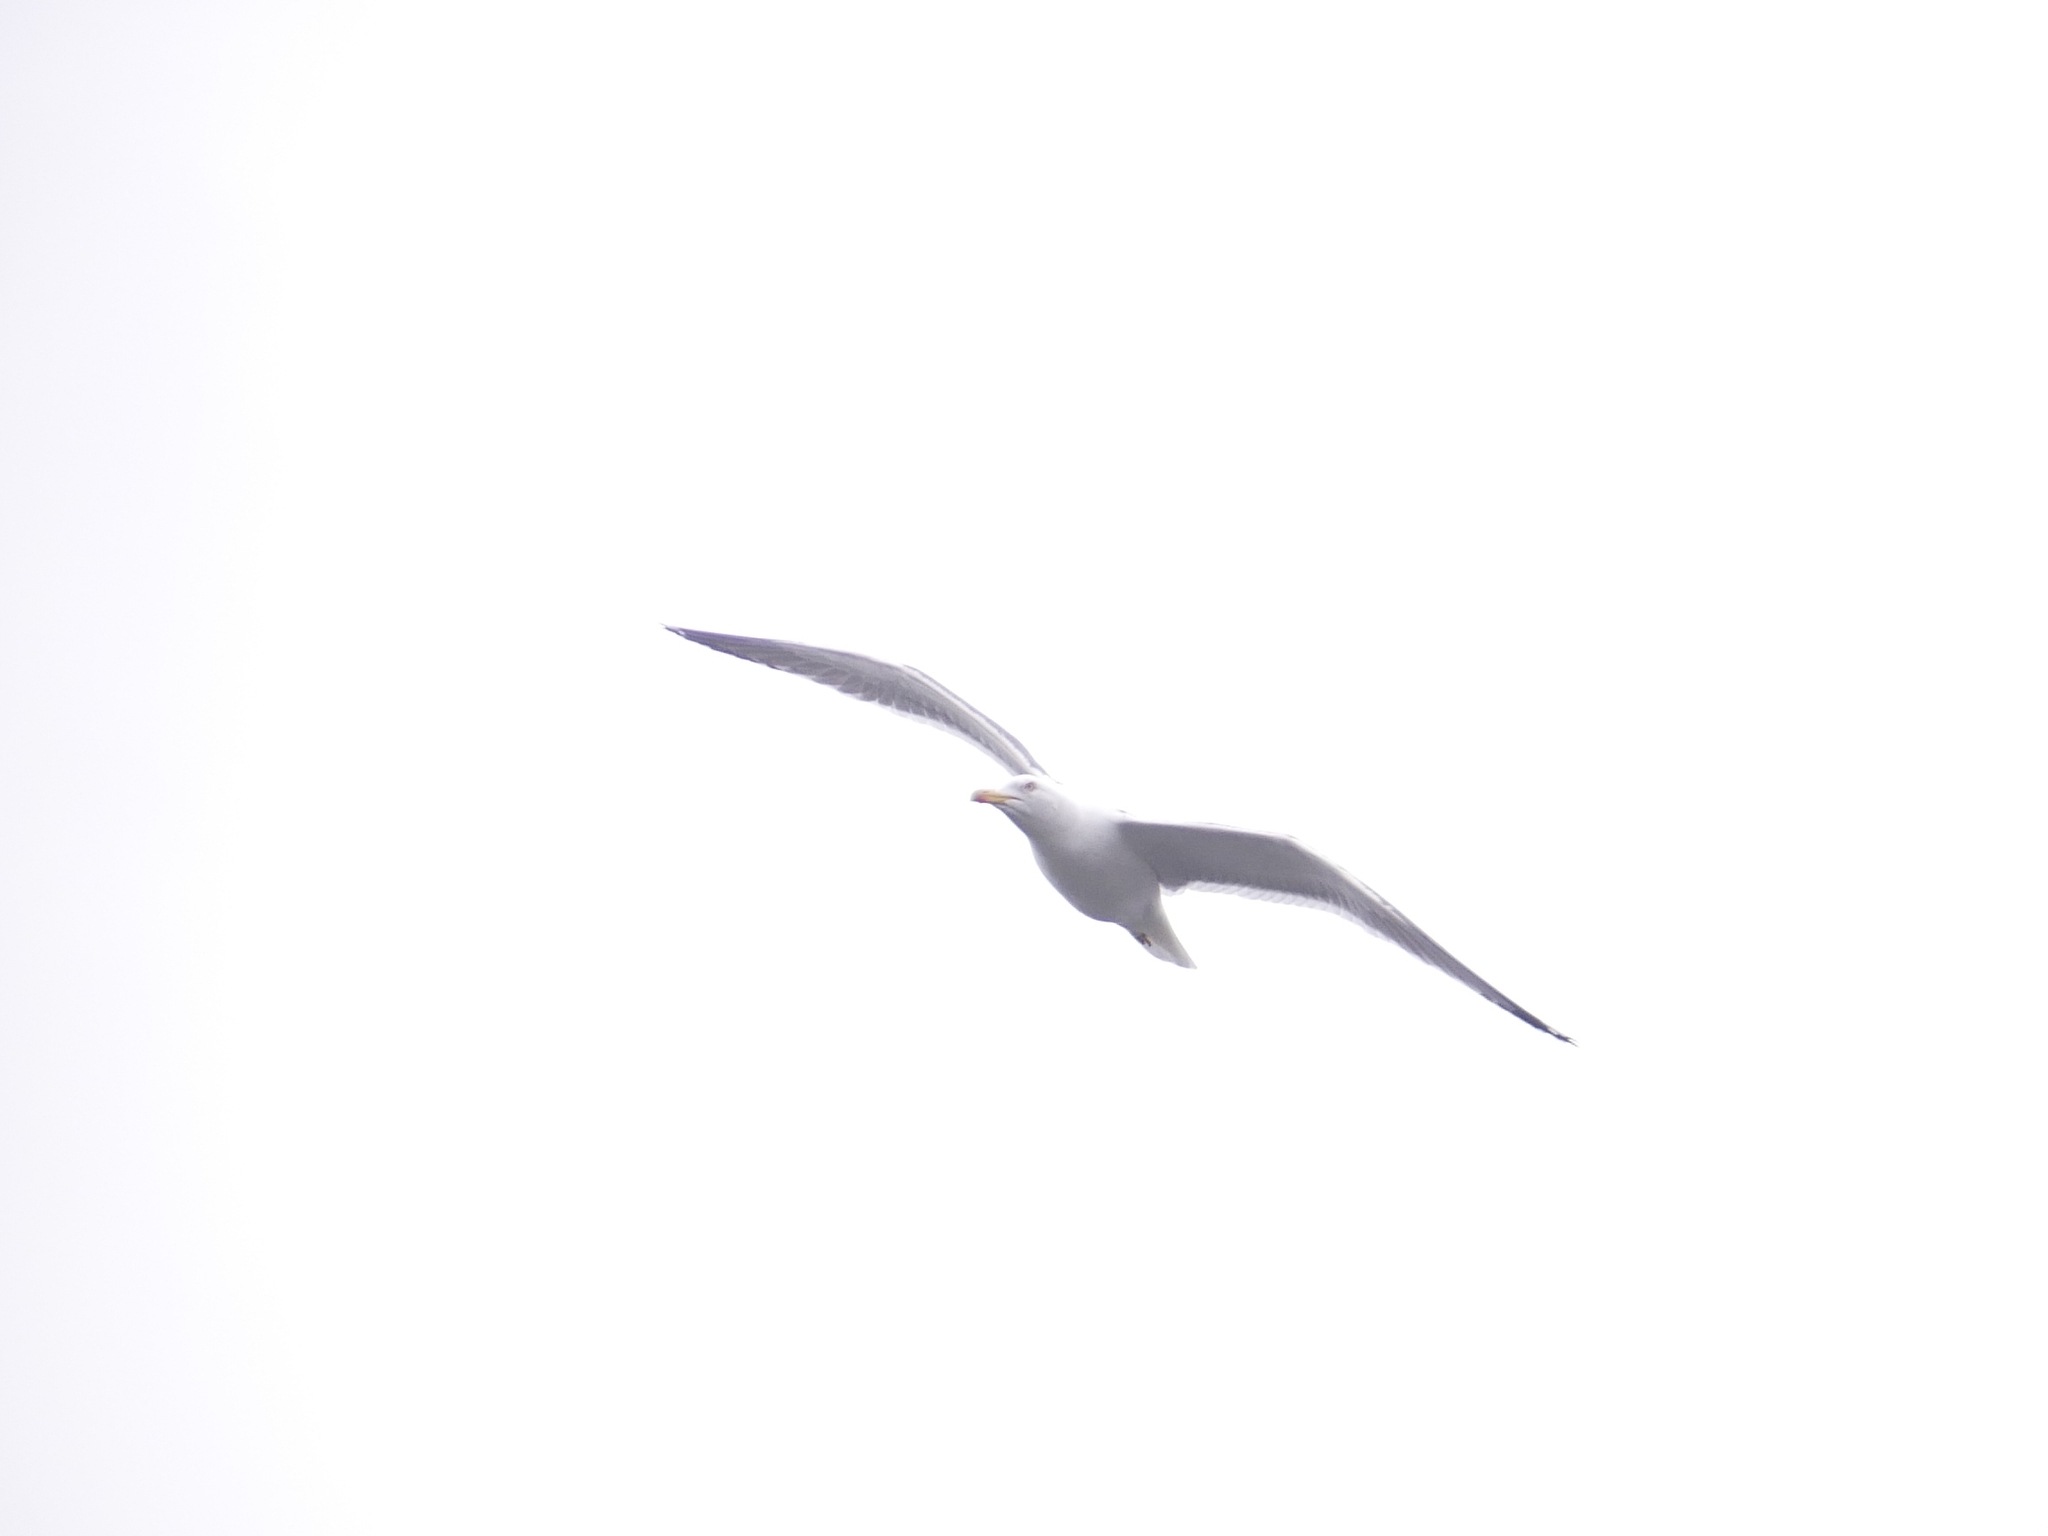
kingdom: Animalia
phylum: Chordata
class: Aves
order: Charadriiformes
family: Laridae
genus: Larus
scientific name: Larus fuscus
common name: Lesser black-backed gull
